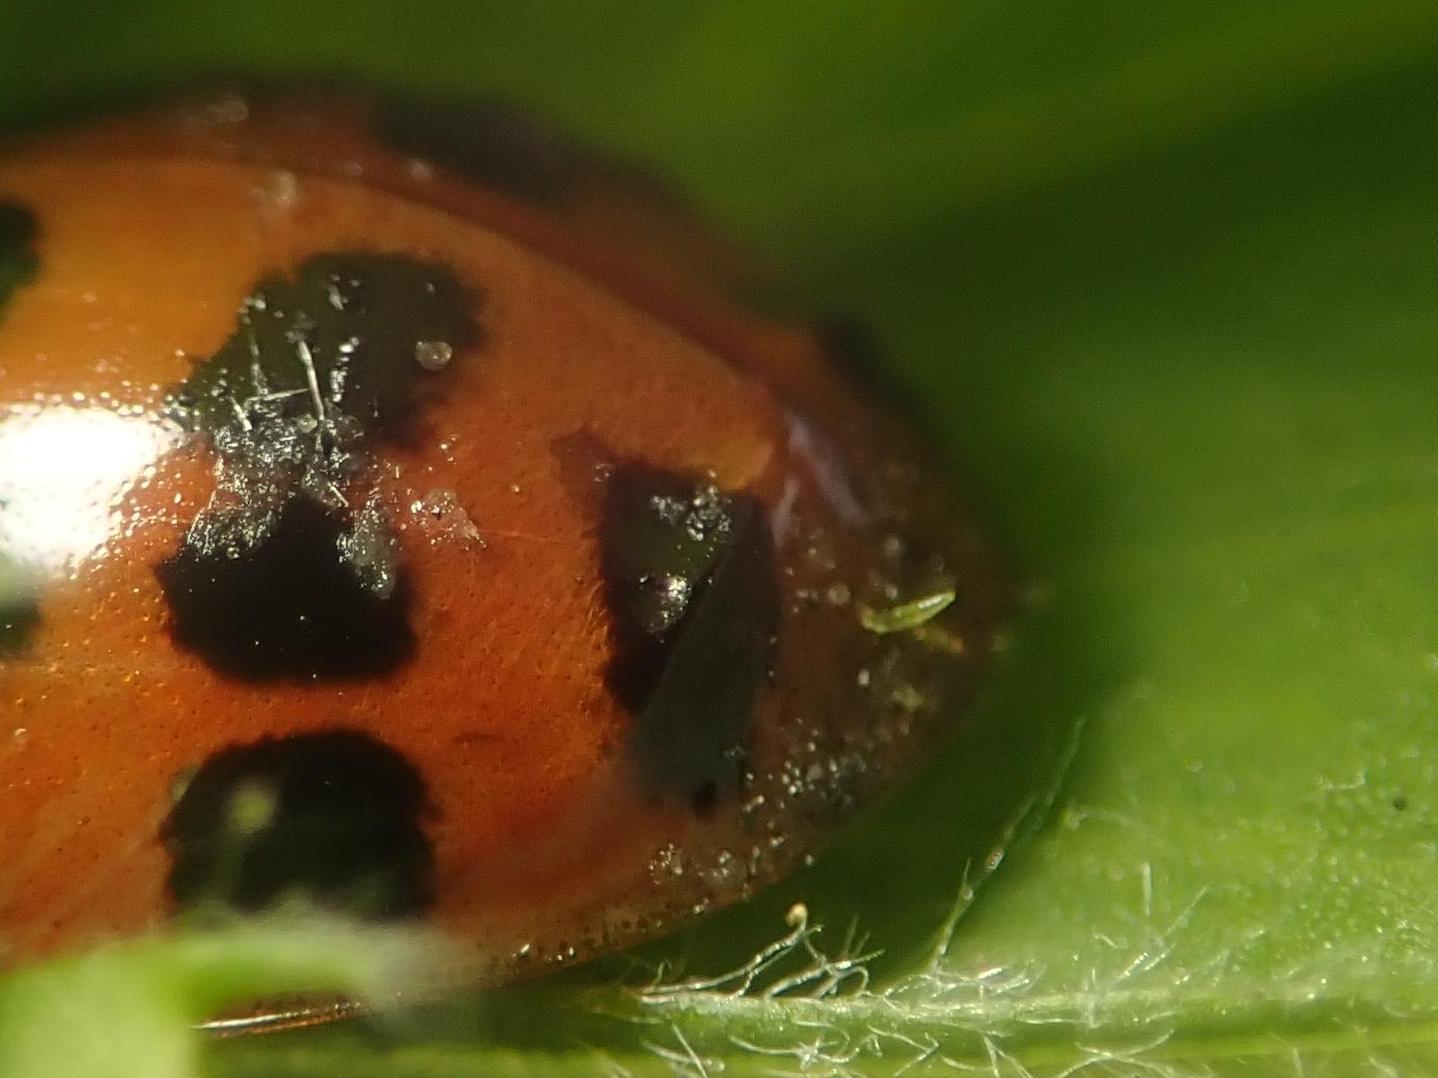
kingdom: Fungi
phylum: Ascomycota
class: Laboulbeniomycetes
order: Laboulbeniales
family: Laboulbeniaceae
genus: Hesperomyces
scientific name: Hesperomyces harmoniae
